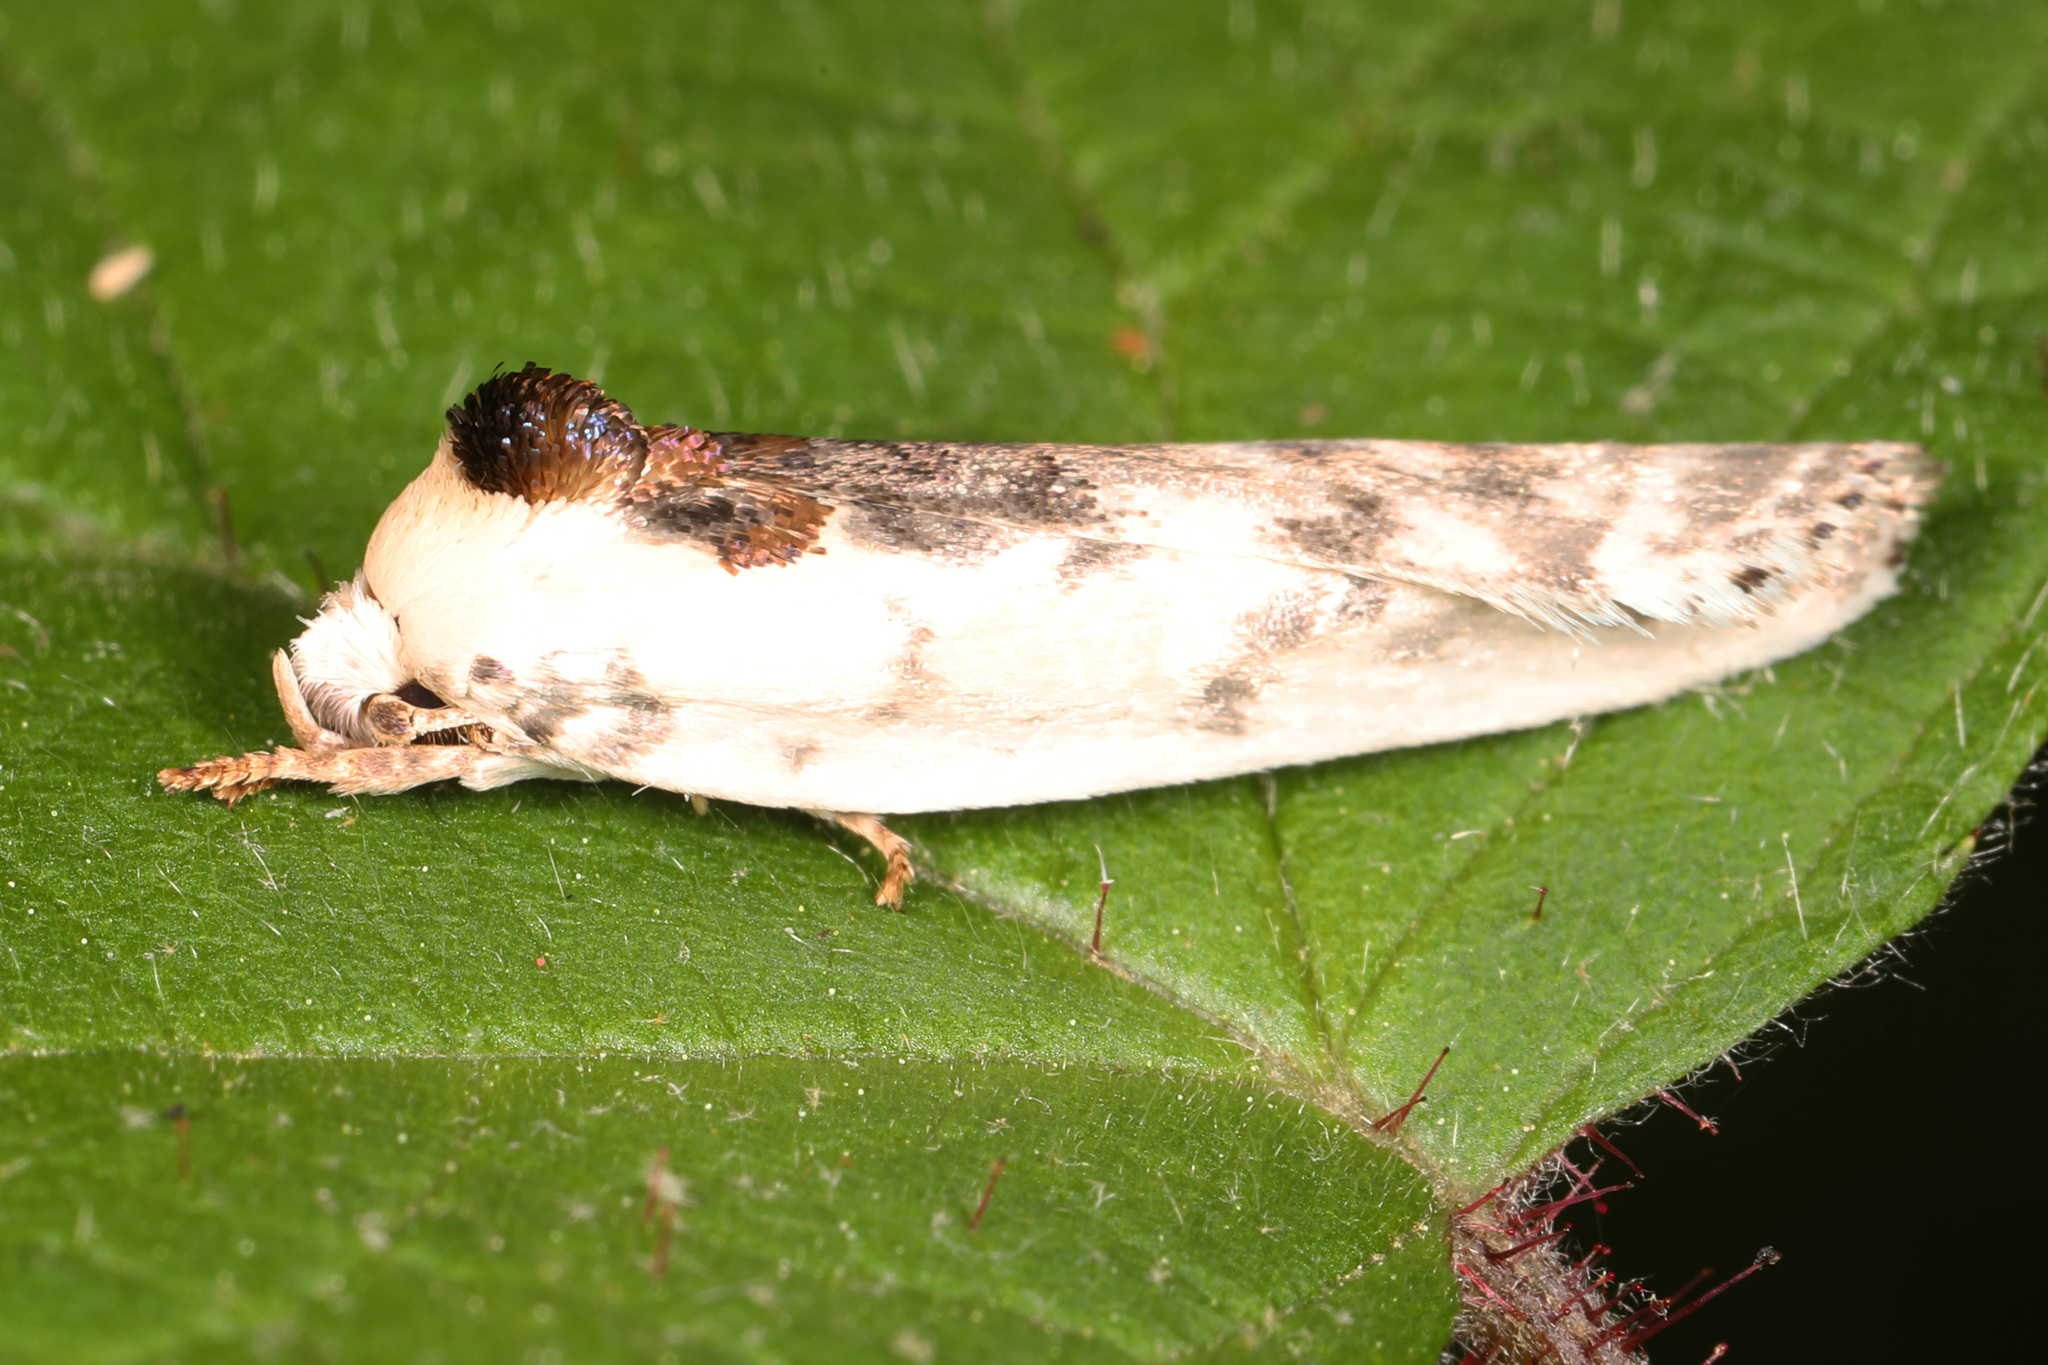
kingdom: Animalia
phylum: Arthropoda
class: Insecta
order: Lepidoptera
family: Depressariidae
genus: Antaeotricha
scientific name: Antaeotricha schlaegeri
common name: Schlaeger's fruitworm moth
